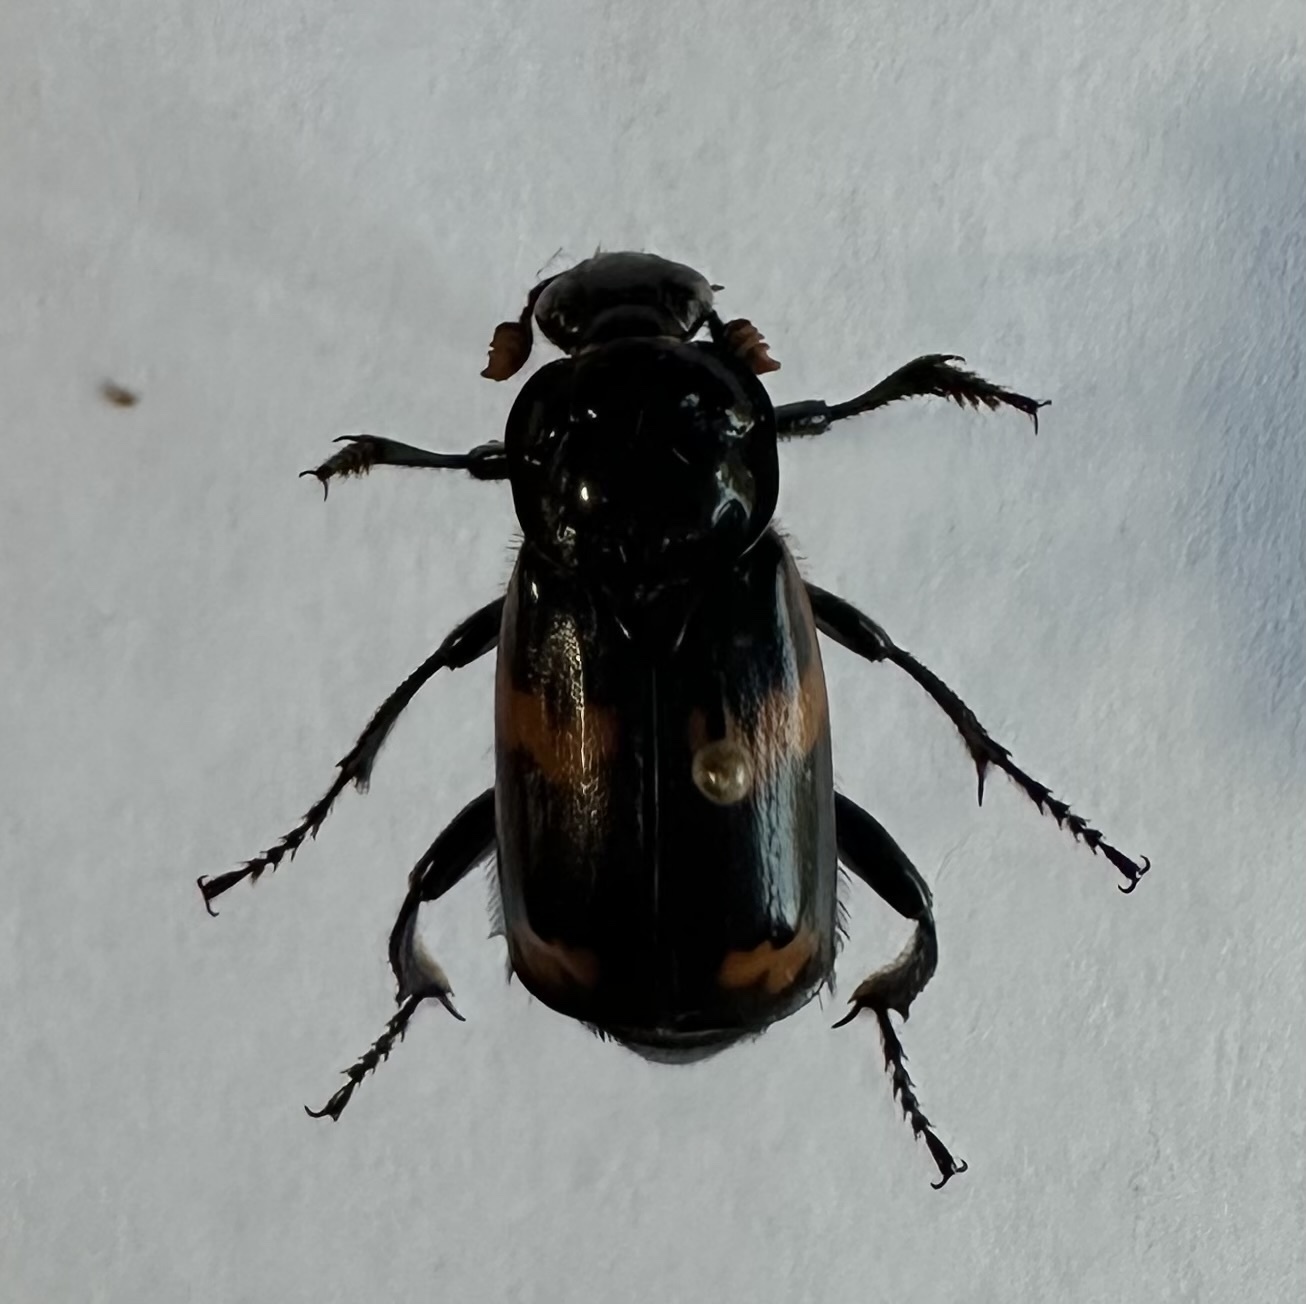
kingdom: Animalia
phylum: Arthropoda
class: Insecta
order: Coleoptera
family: Staphylinidae
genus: Nicrophorus
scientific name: Nicrophorus sayi
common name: Say's burying beetle
